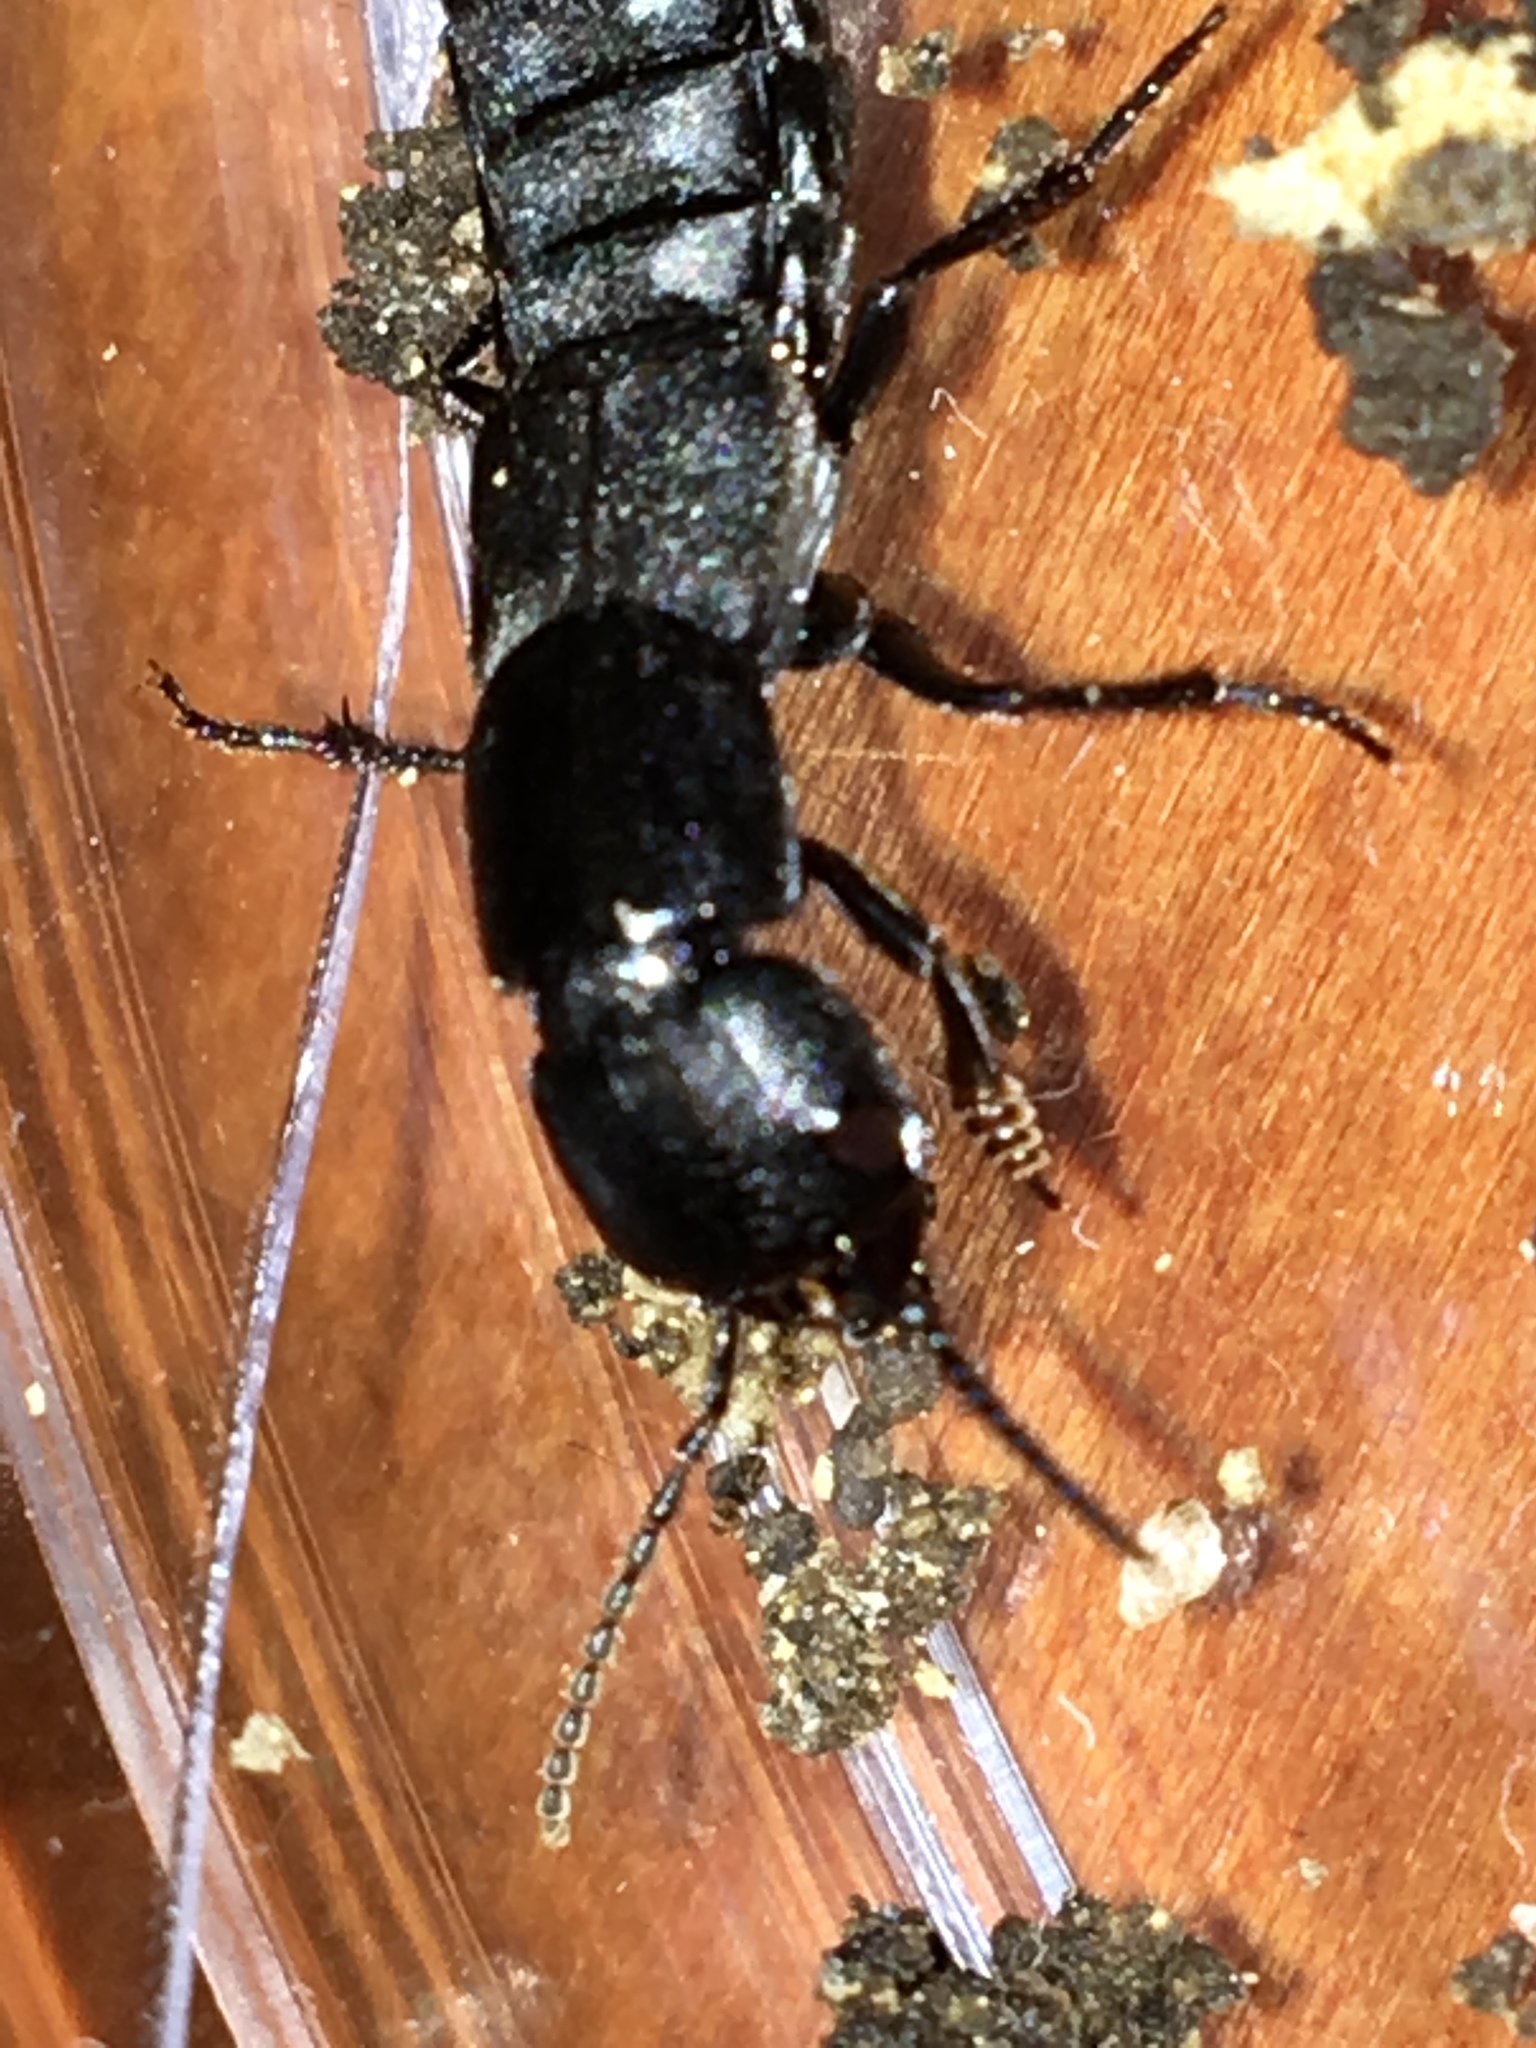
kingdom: Animalia
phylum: Arthropoda
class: Insecta
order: Coleoptera
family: Staphylinidae
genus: Ocypus
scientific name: Ocypus nitens
